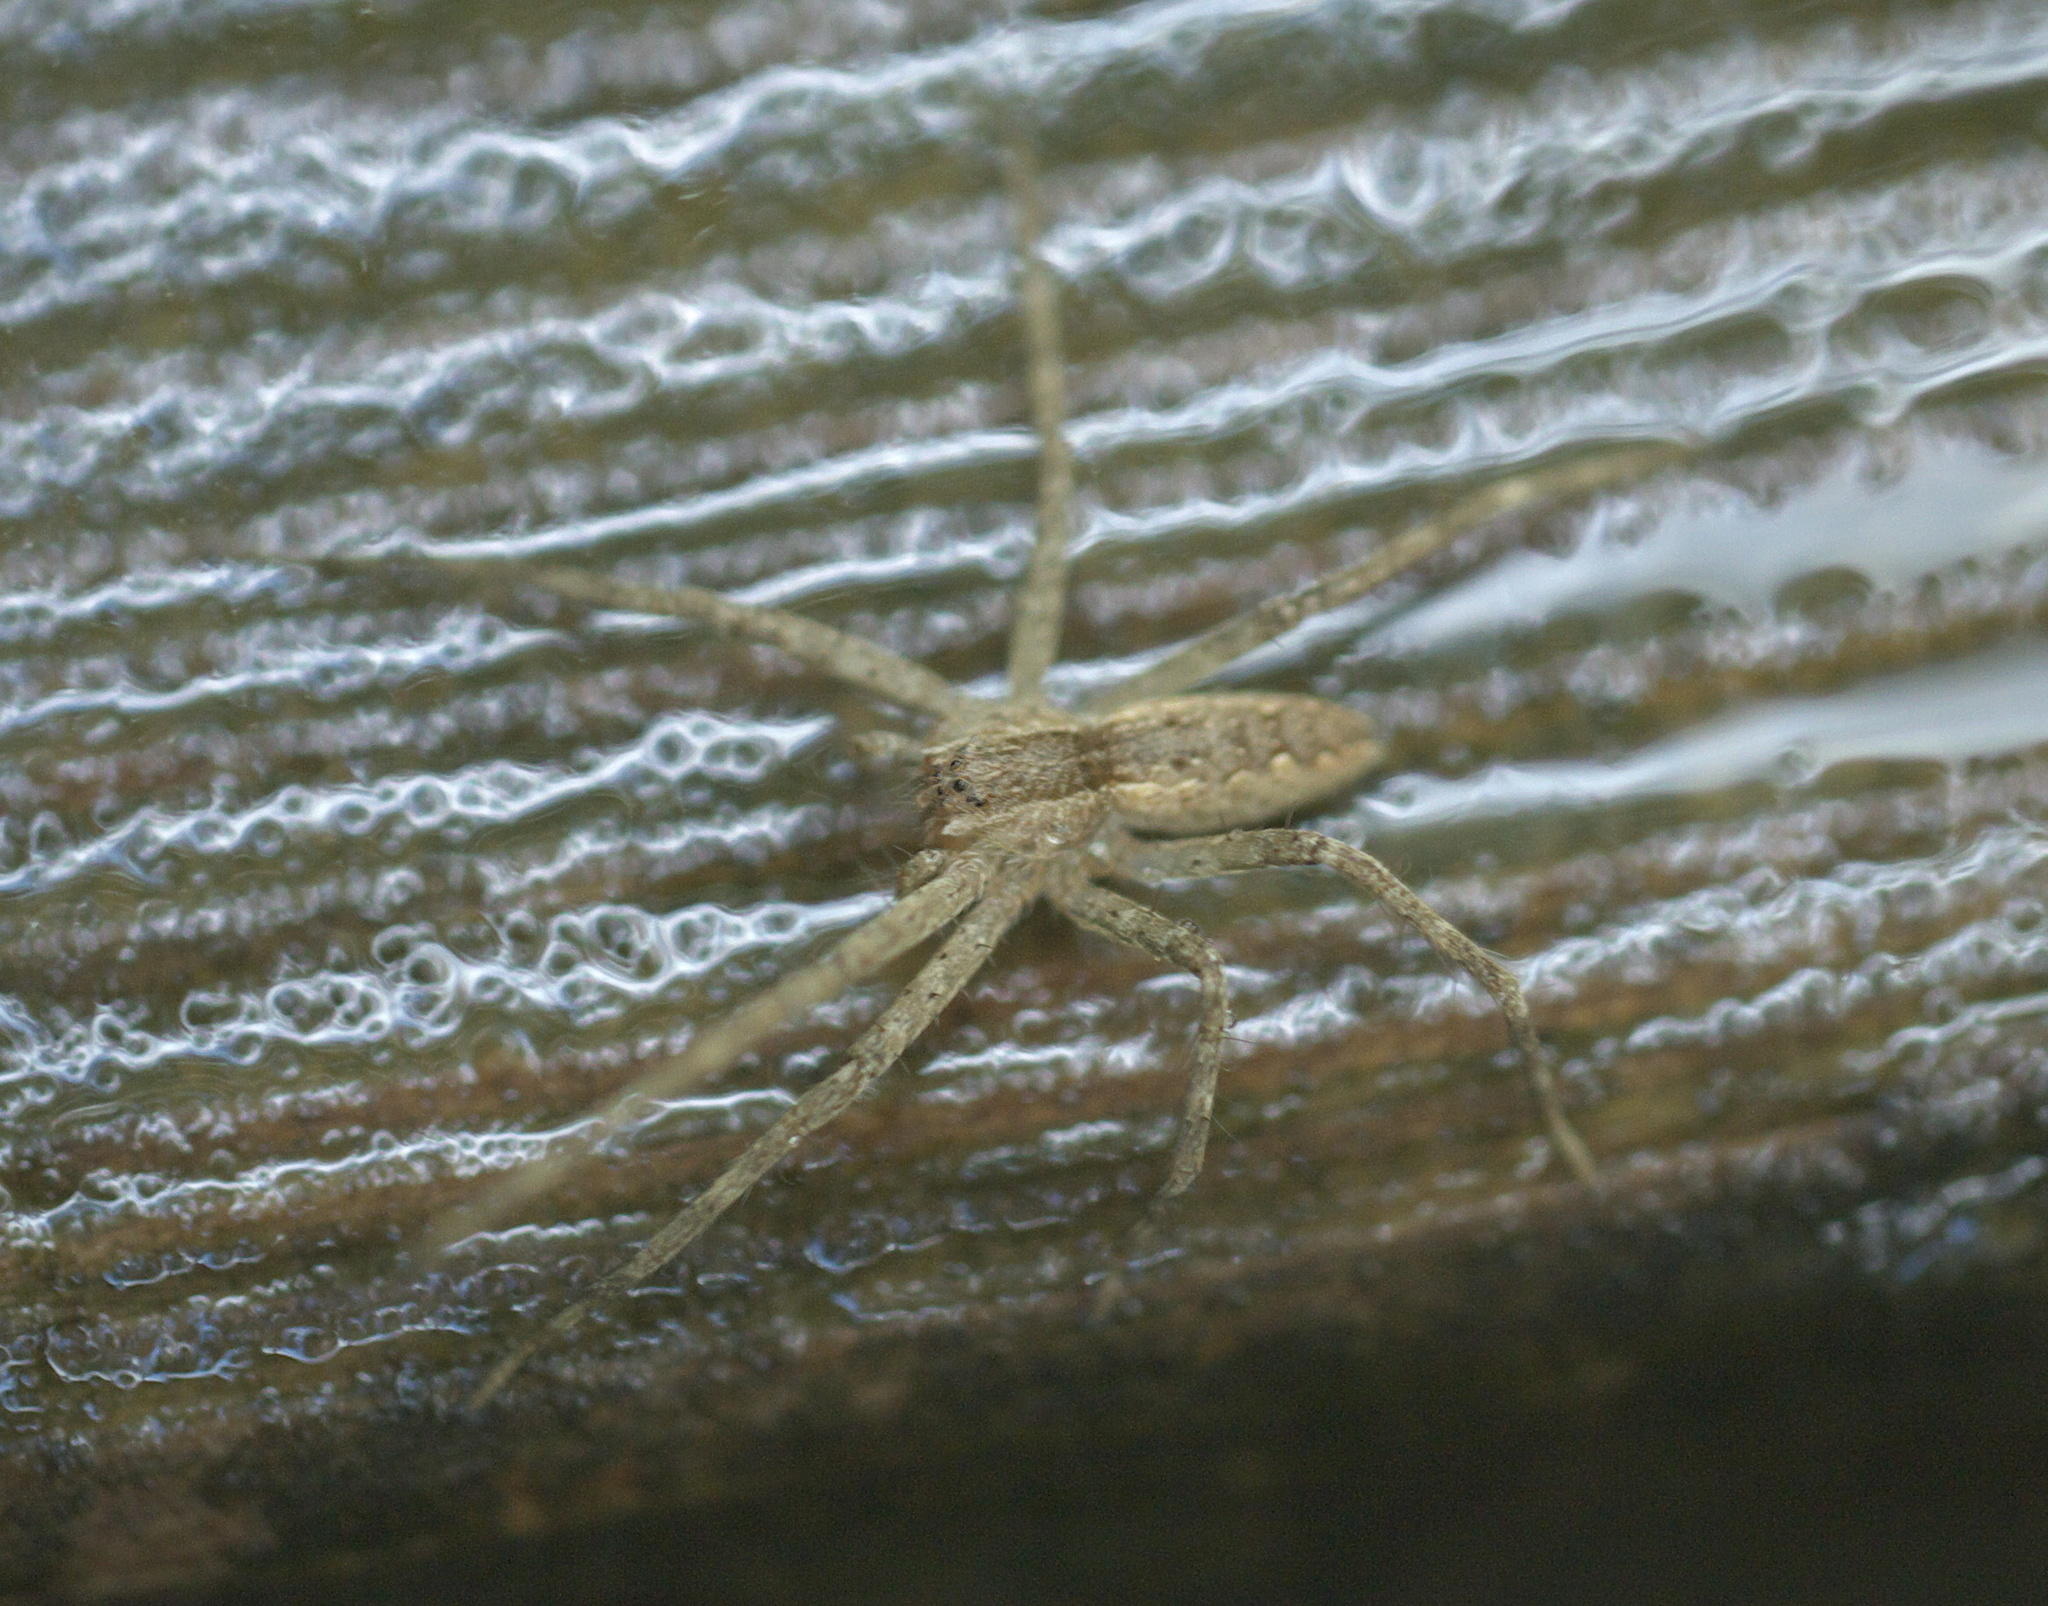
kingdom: Animalia
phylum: Arthropoda
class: Arachnida
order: Araneae
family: Pisauridae
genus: Pisaurina
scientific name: Pisaurina mira
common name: American nursery web spider
